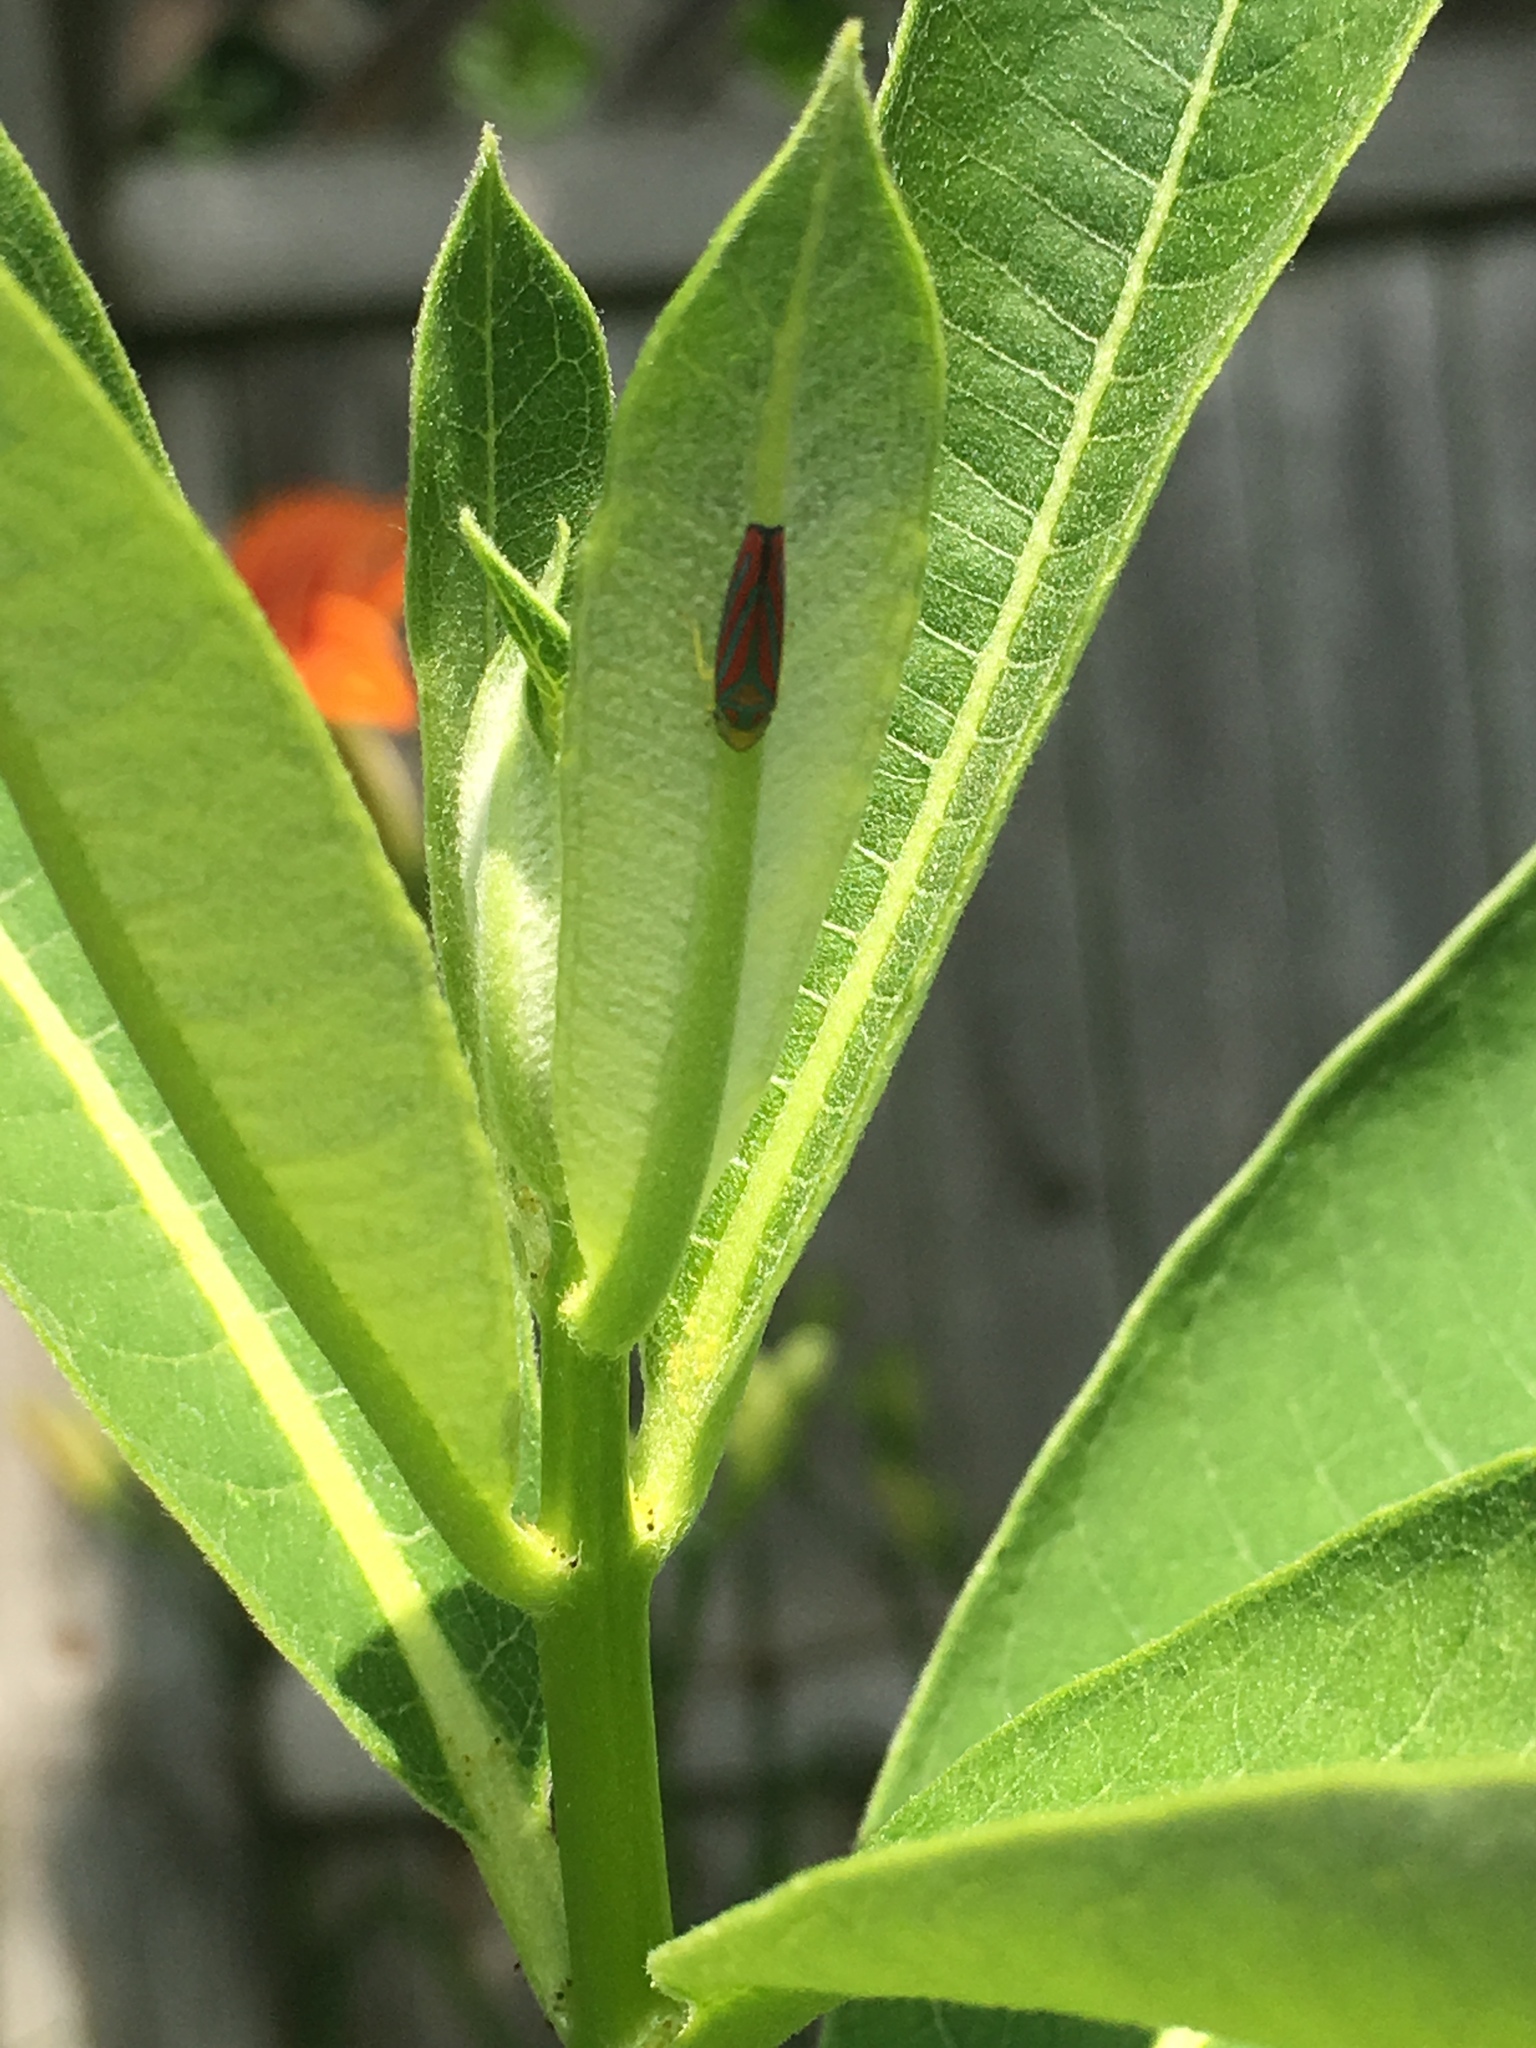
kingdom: Animalia
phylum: Arthropoda
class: Insecta
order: Hemiptera
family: Cicadellidae
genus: Graphocephala
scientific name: Graphocephala coccinea
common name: Candy-striped leafhopper
